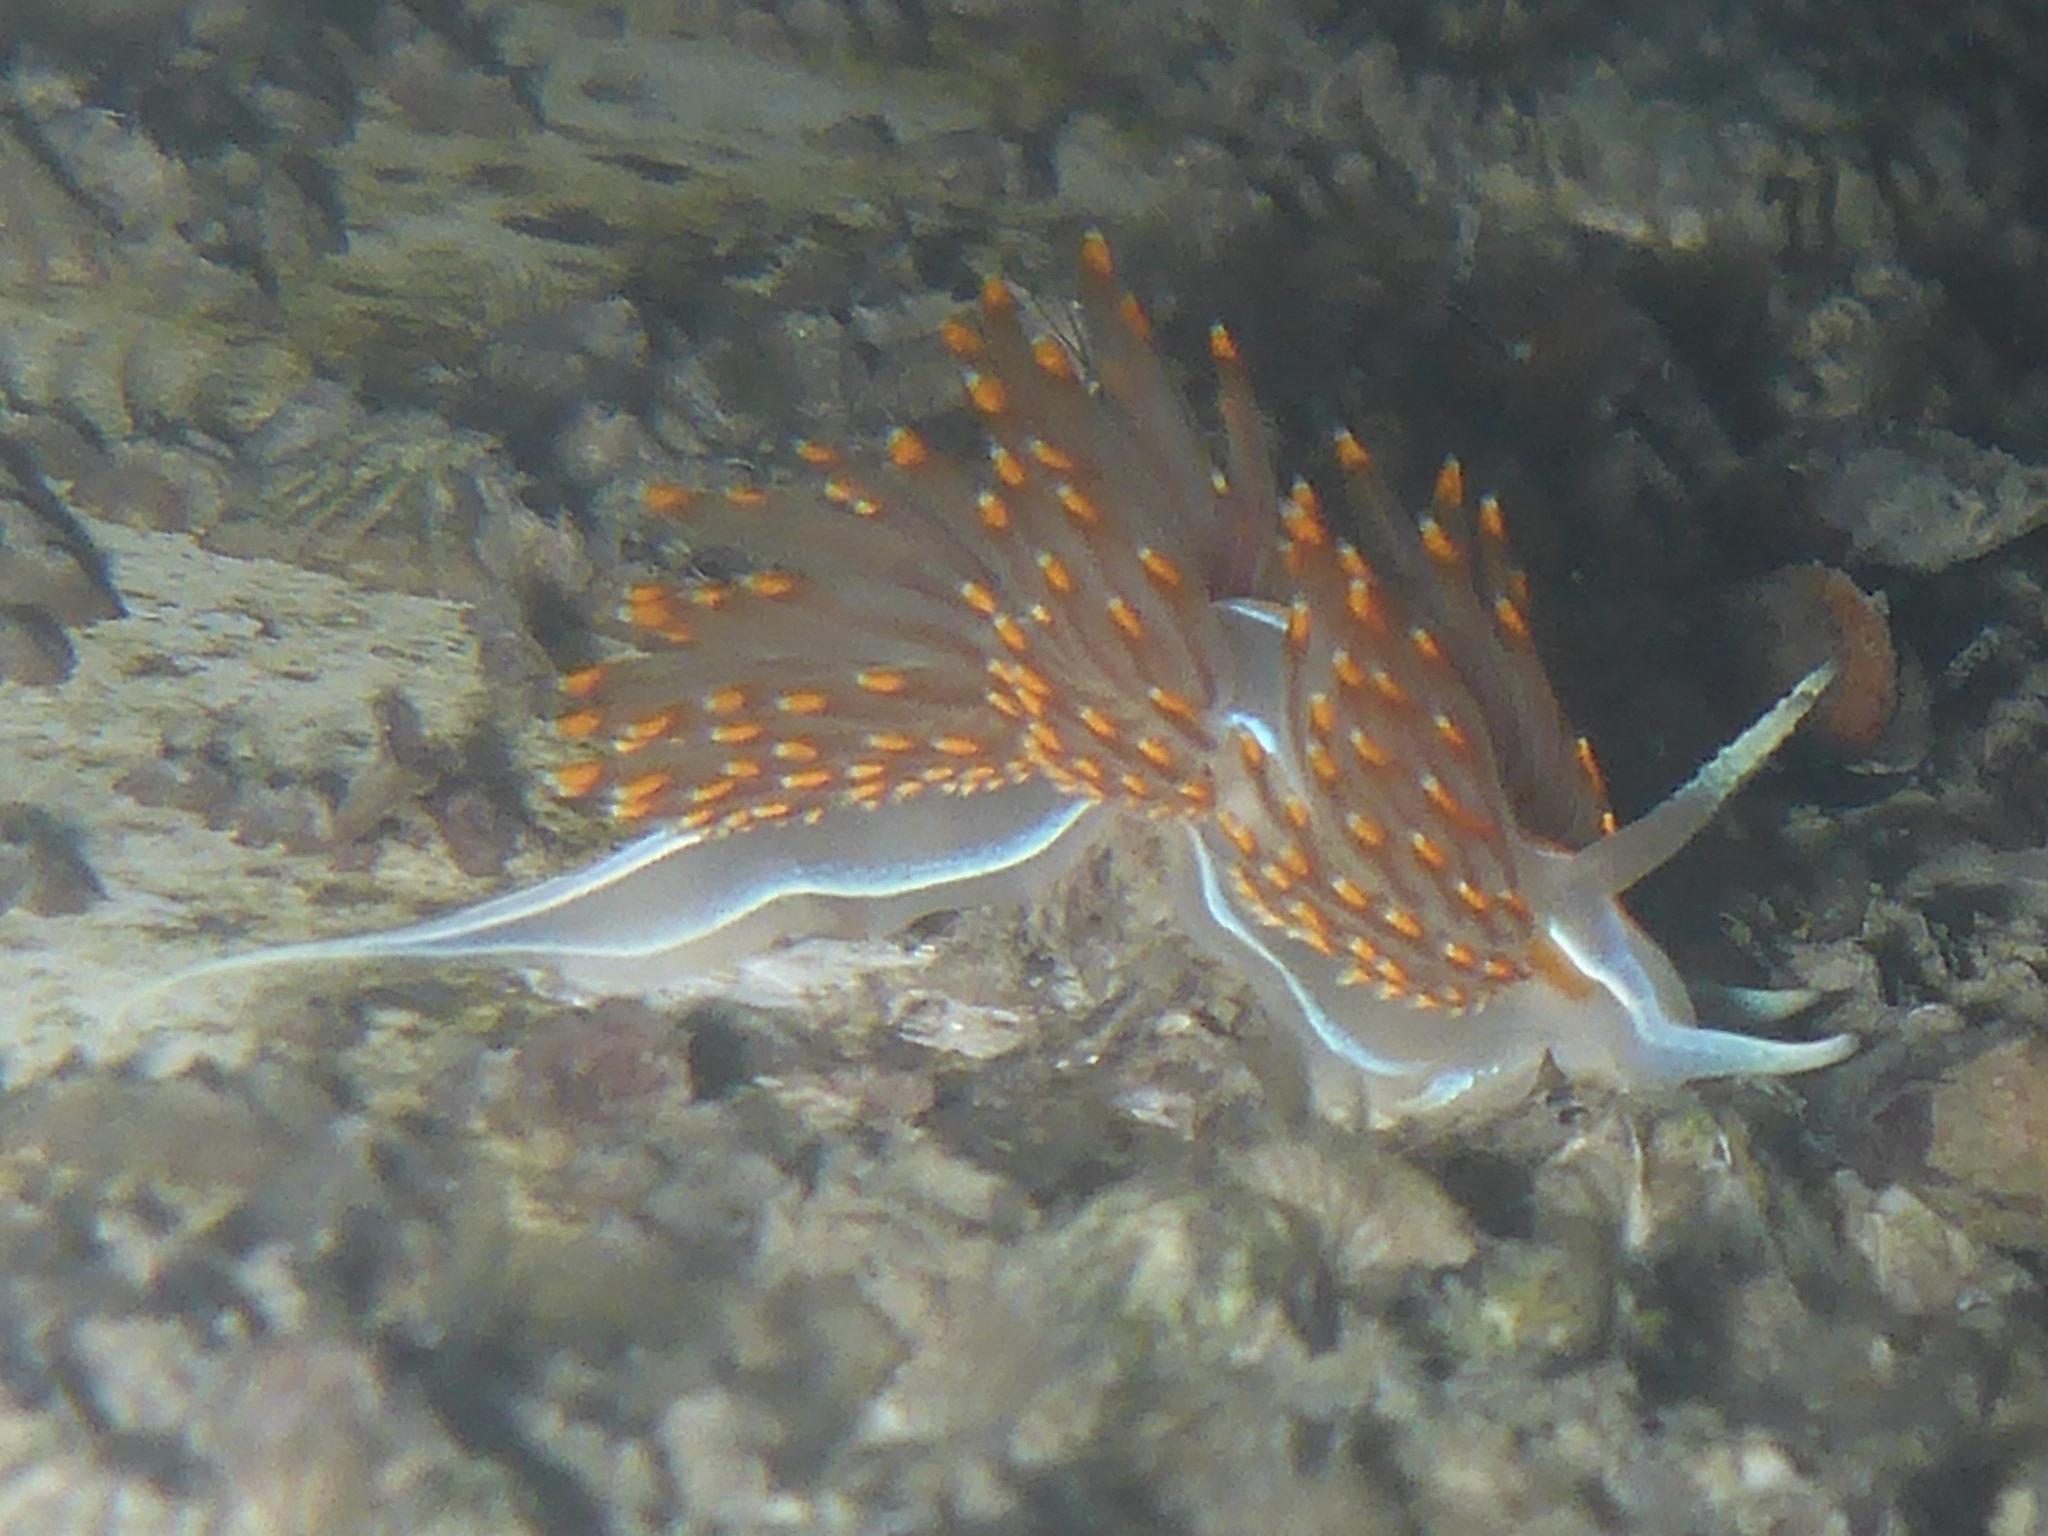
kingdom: Animalia
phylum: Mollusca
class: Gastropoda
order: Nudibranchia
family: Myrrhinidae
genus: Hermissenda
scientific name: Hermissenda opalescens
